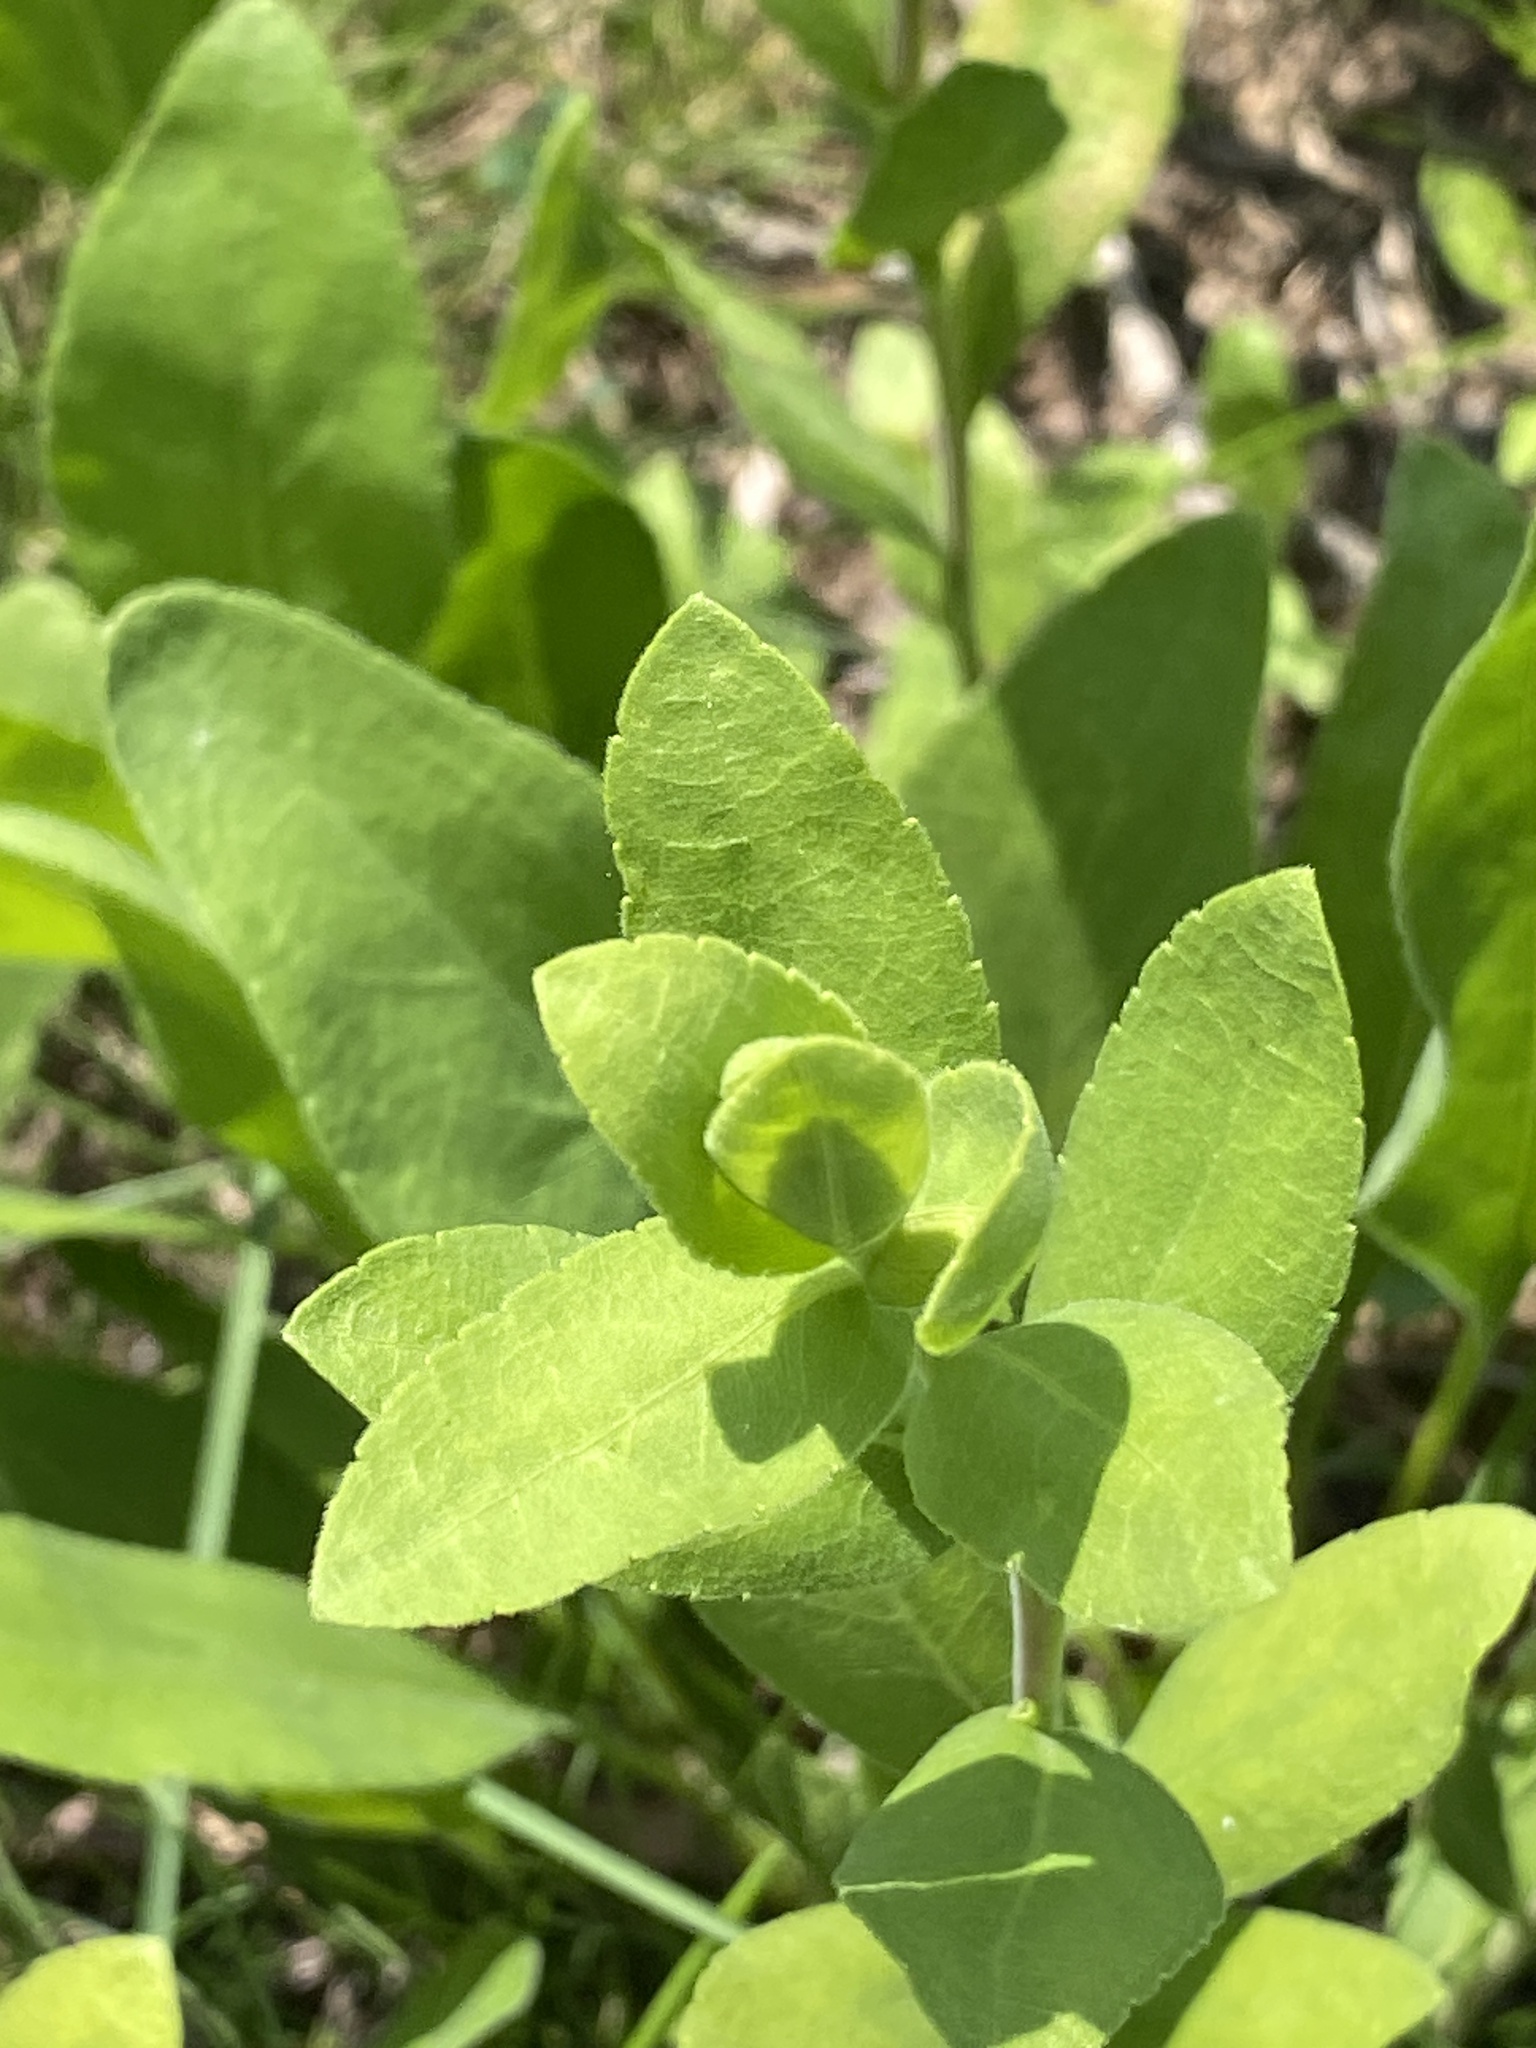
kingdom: Plantae
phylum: Tracheophyta
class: Magnoliopsida
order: Asterales
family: Asteraceae
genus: Solidago
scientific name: Solidago rigida
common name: Rigid goldenrod
